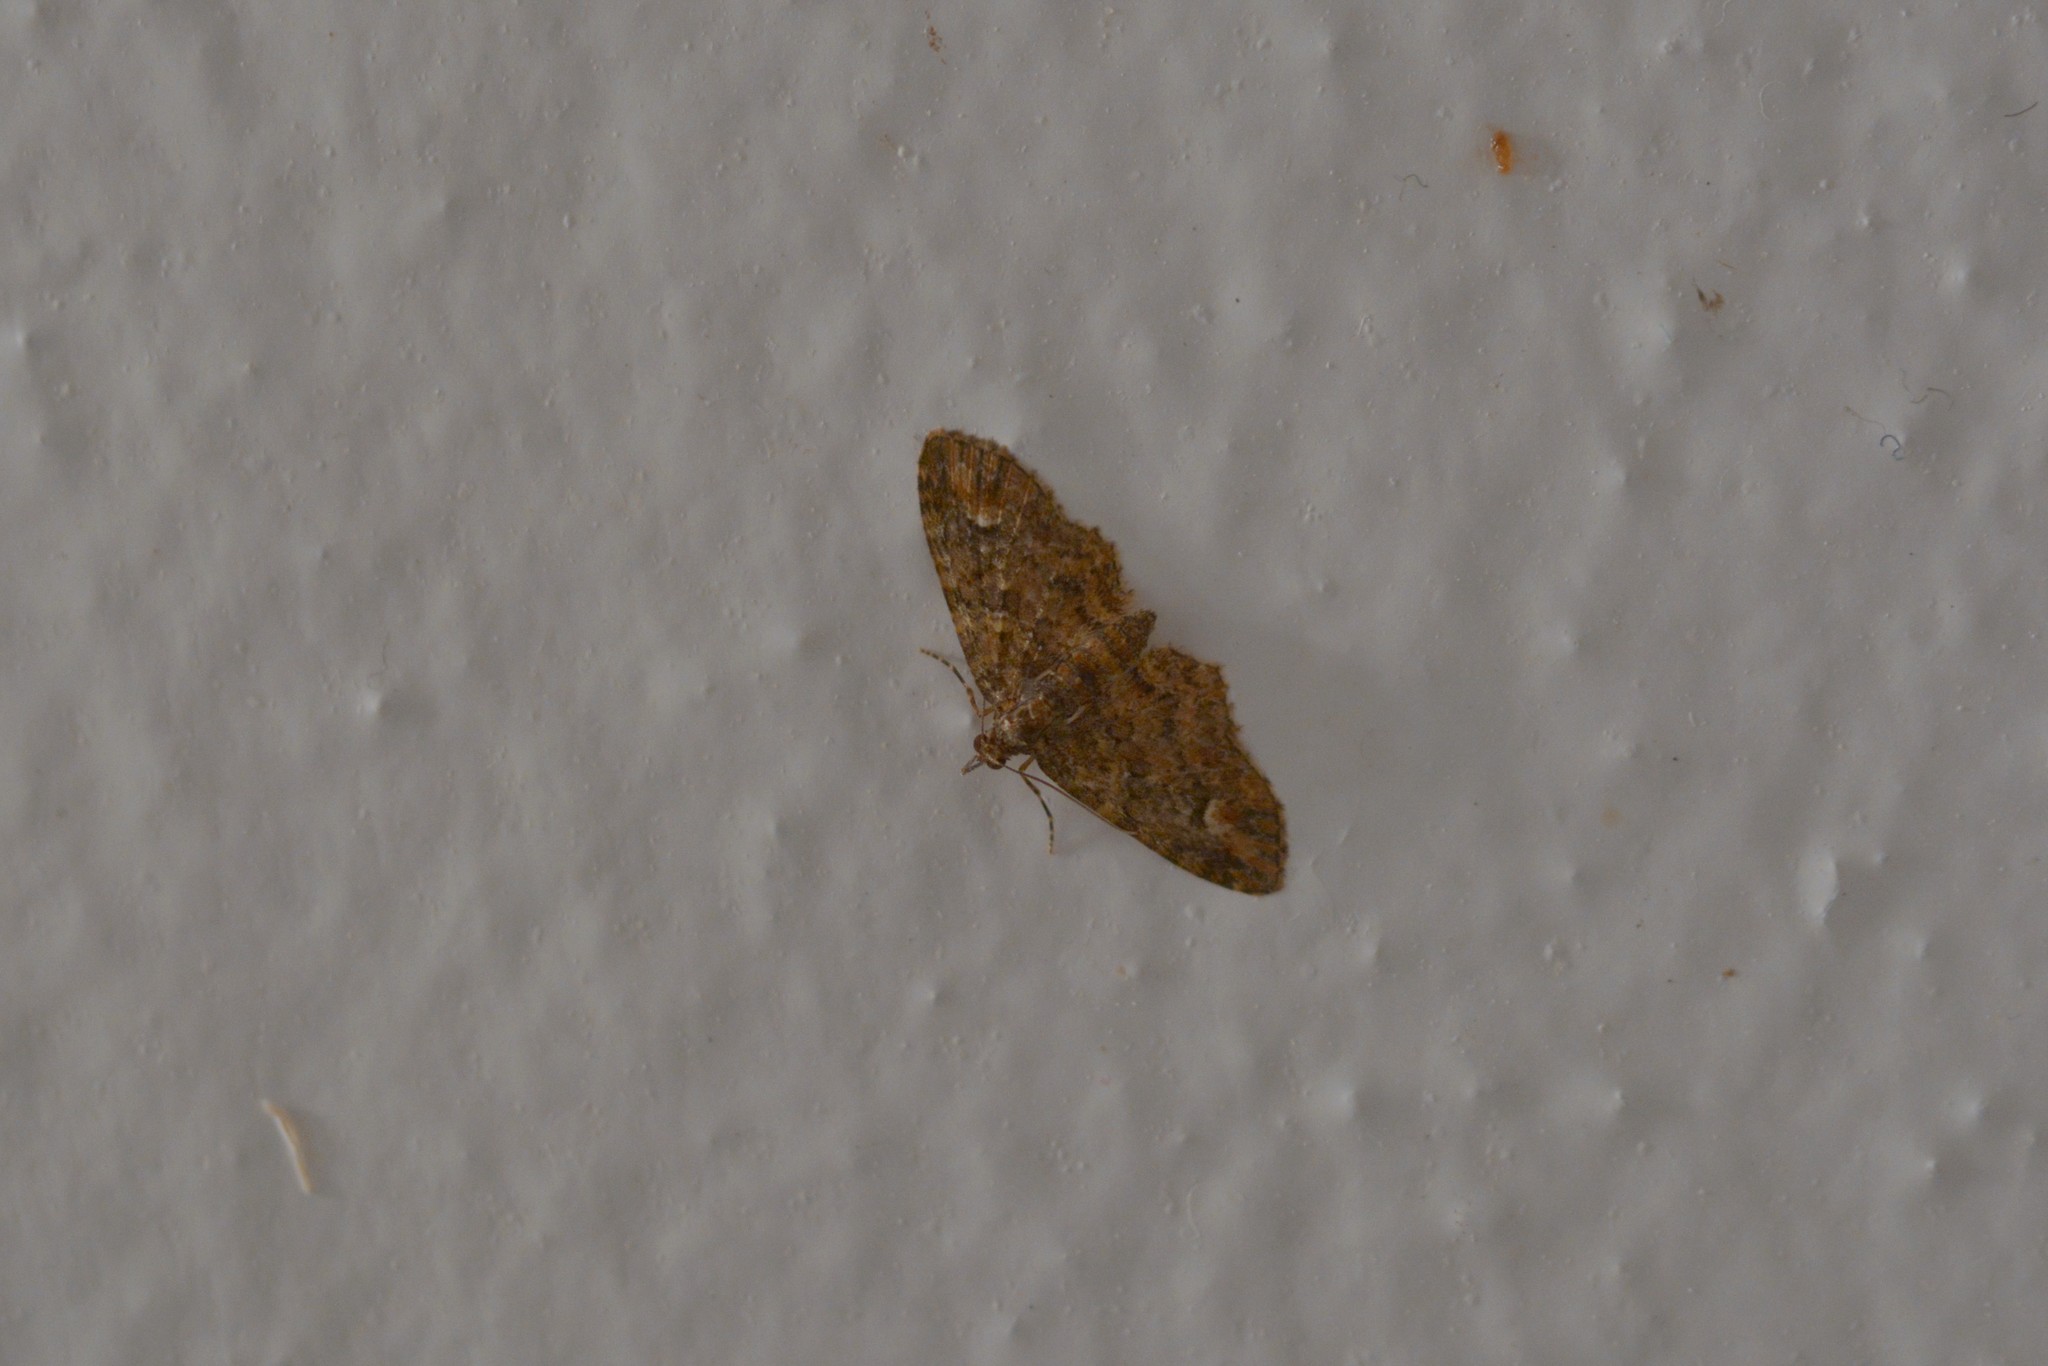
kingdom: Animalia
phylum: Arthropoda
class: Insecta
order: Lepidoptera
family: Geometridae
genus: Pasiphilodes
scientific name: Pasiphilodes testulata
